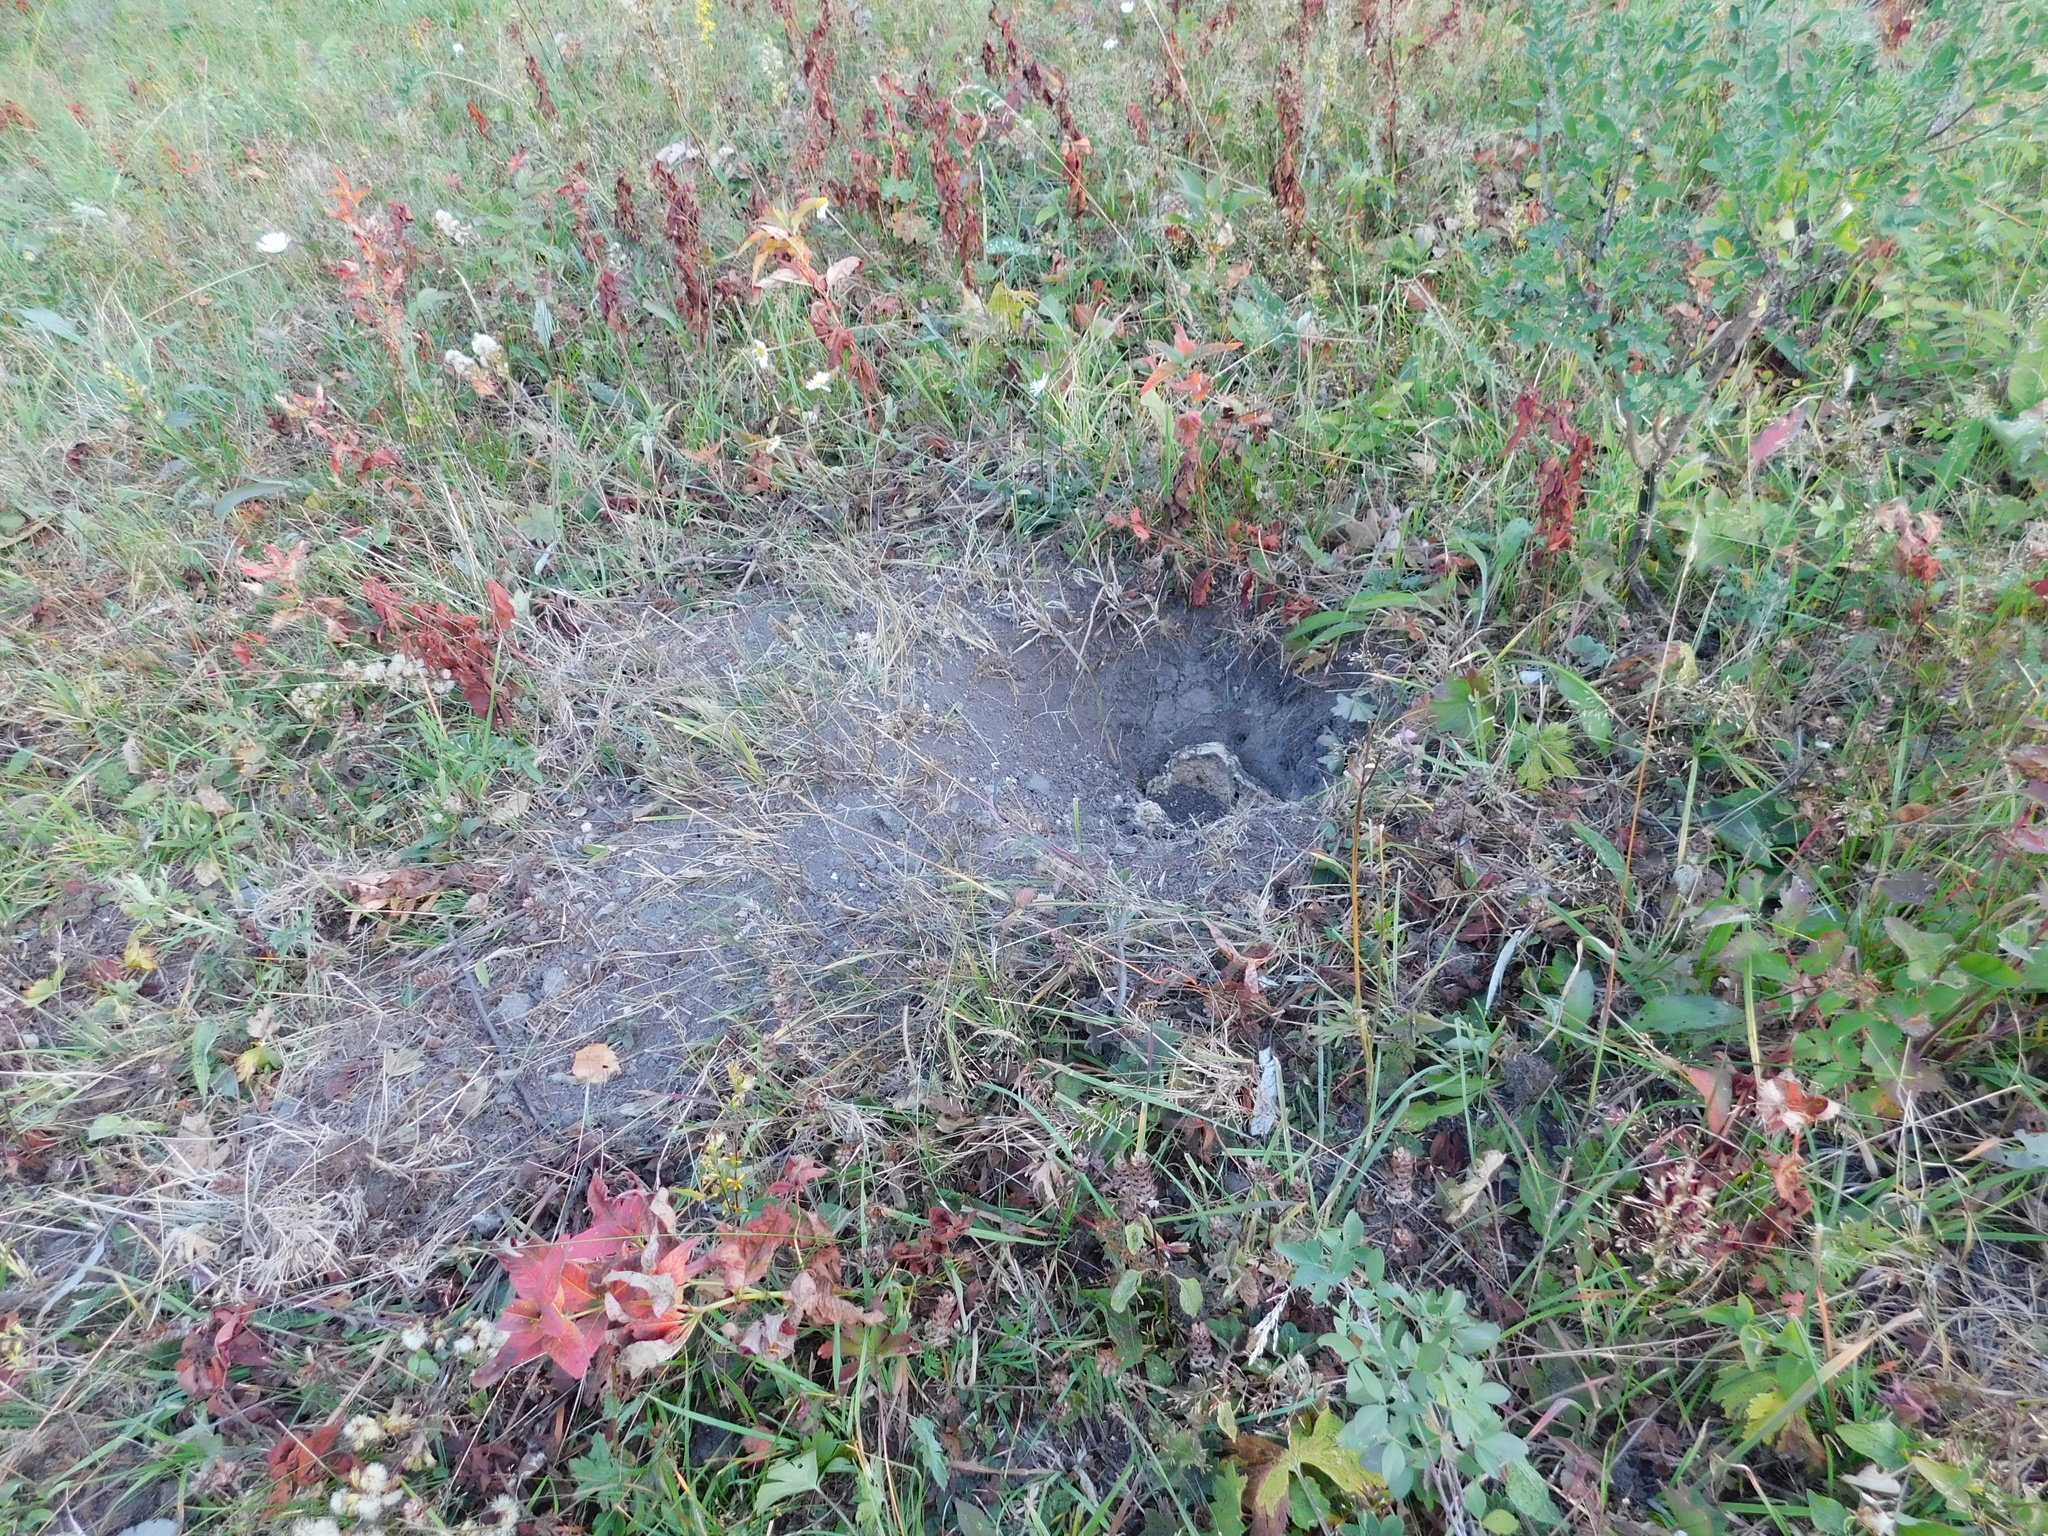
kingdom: Animalia
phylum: Arthropoda
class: Insecta
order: Hymenoptera
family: Vespidae
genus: Vespula
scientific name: Vespula vulgaris
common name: Common wasp
